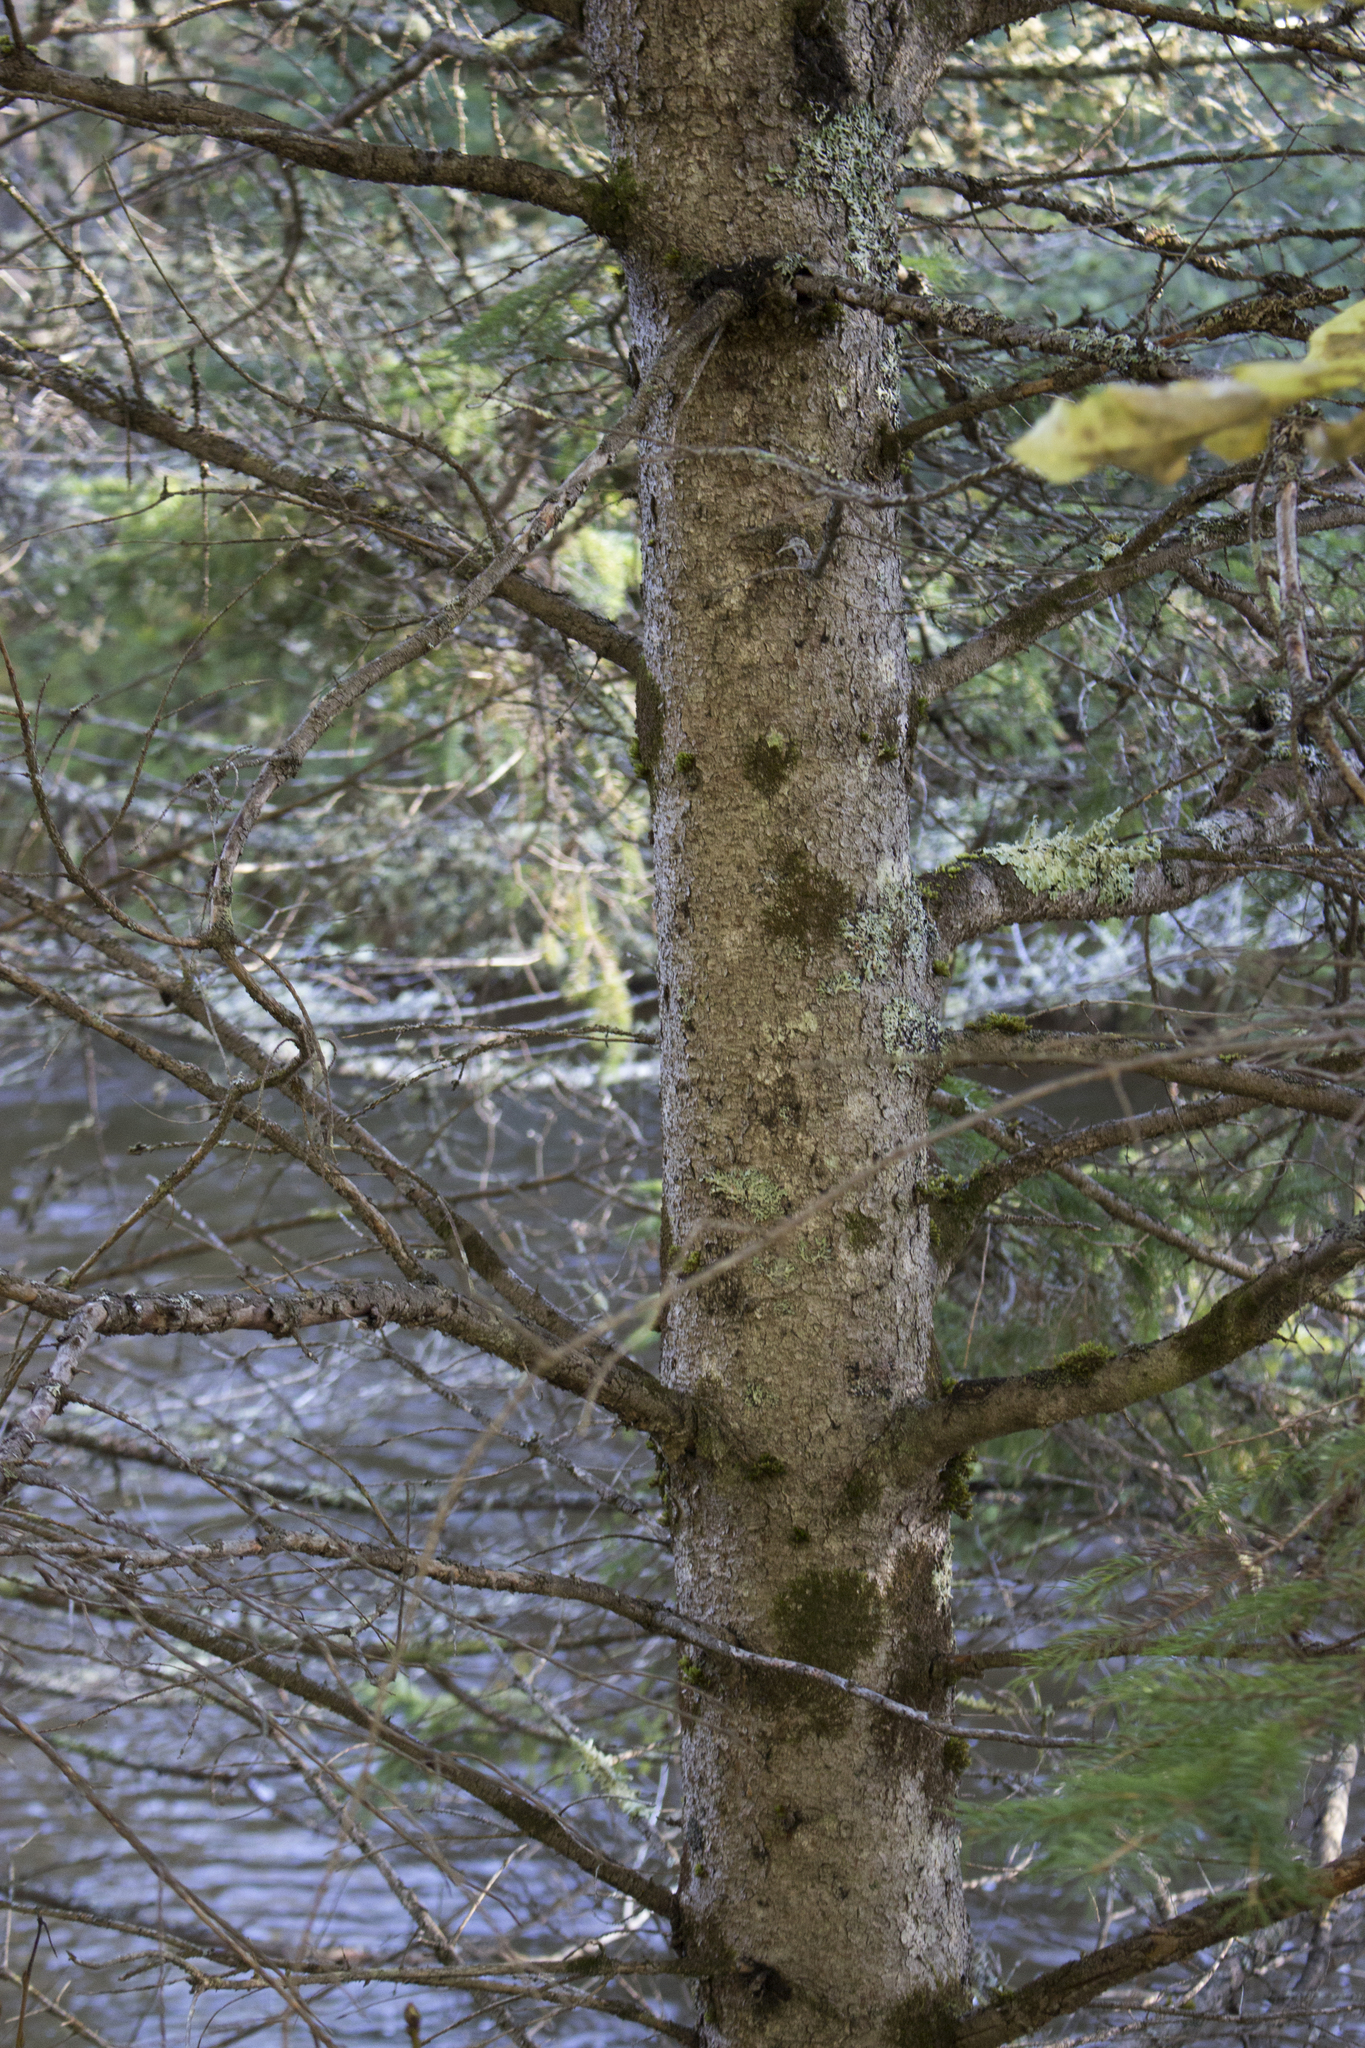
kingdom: Plantae
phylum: Tracheophyta
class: Pinopsida
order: Pinales
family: Pinaceae
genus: Picea
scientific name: Picea glauca
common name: White spruce
